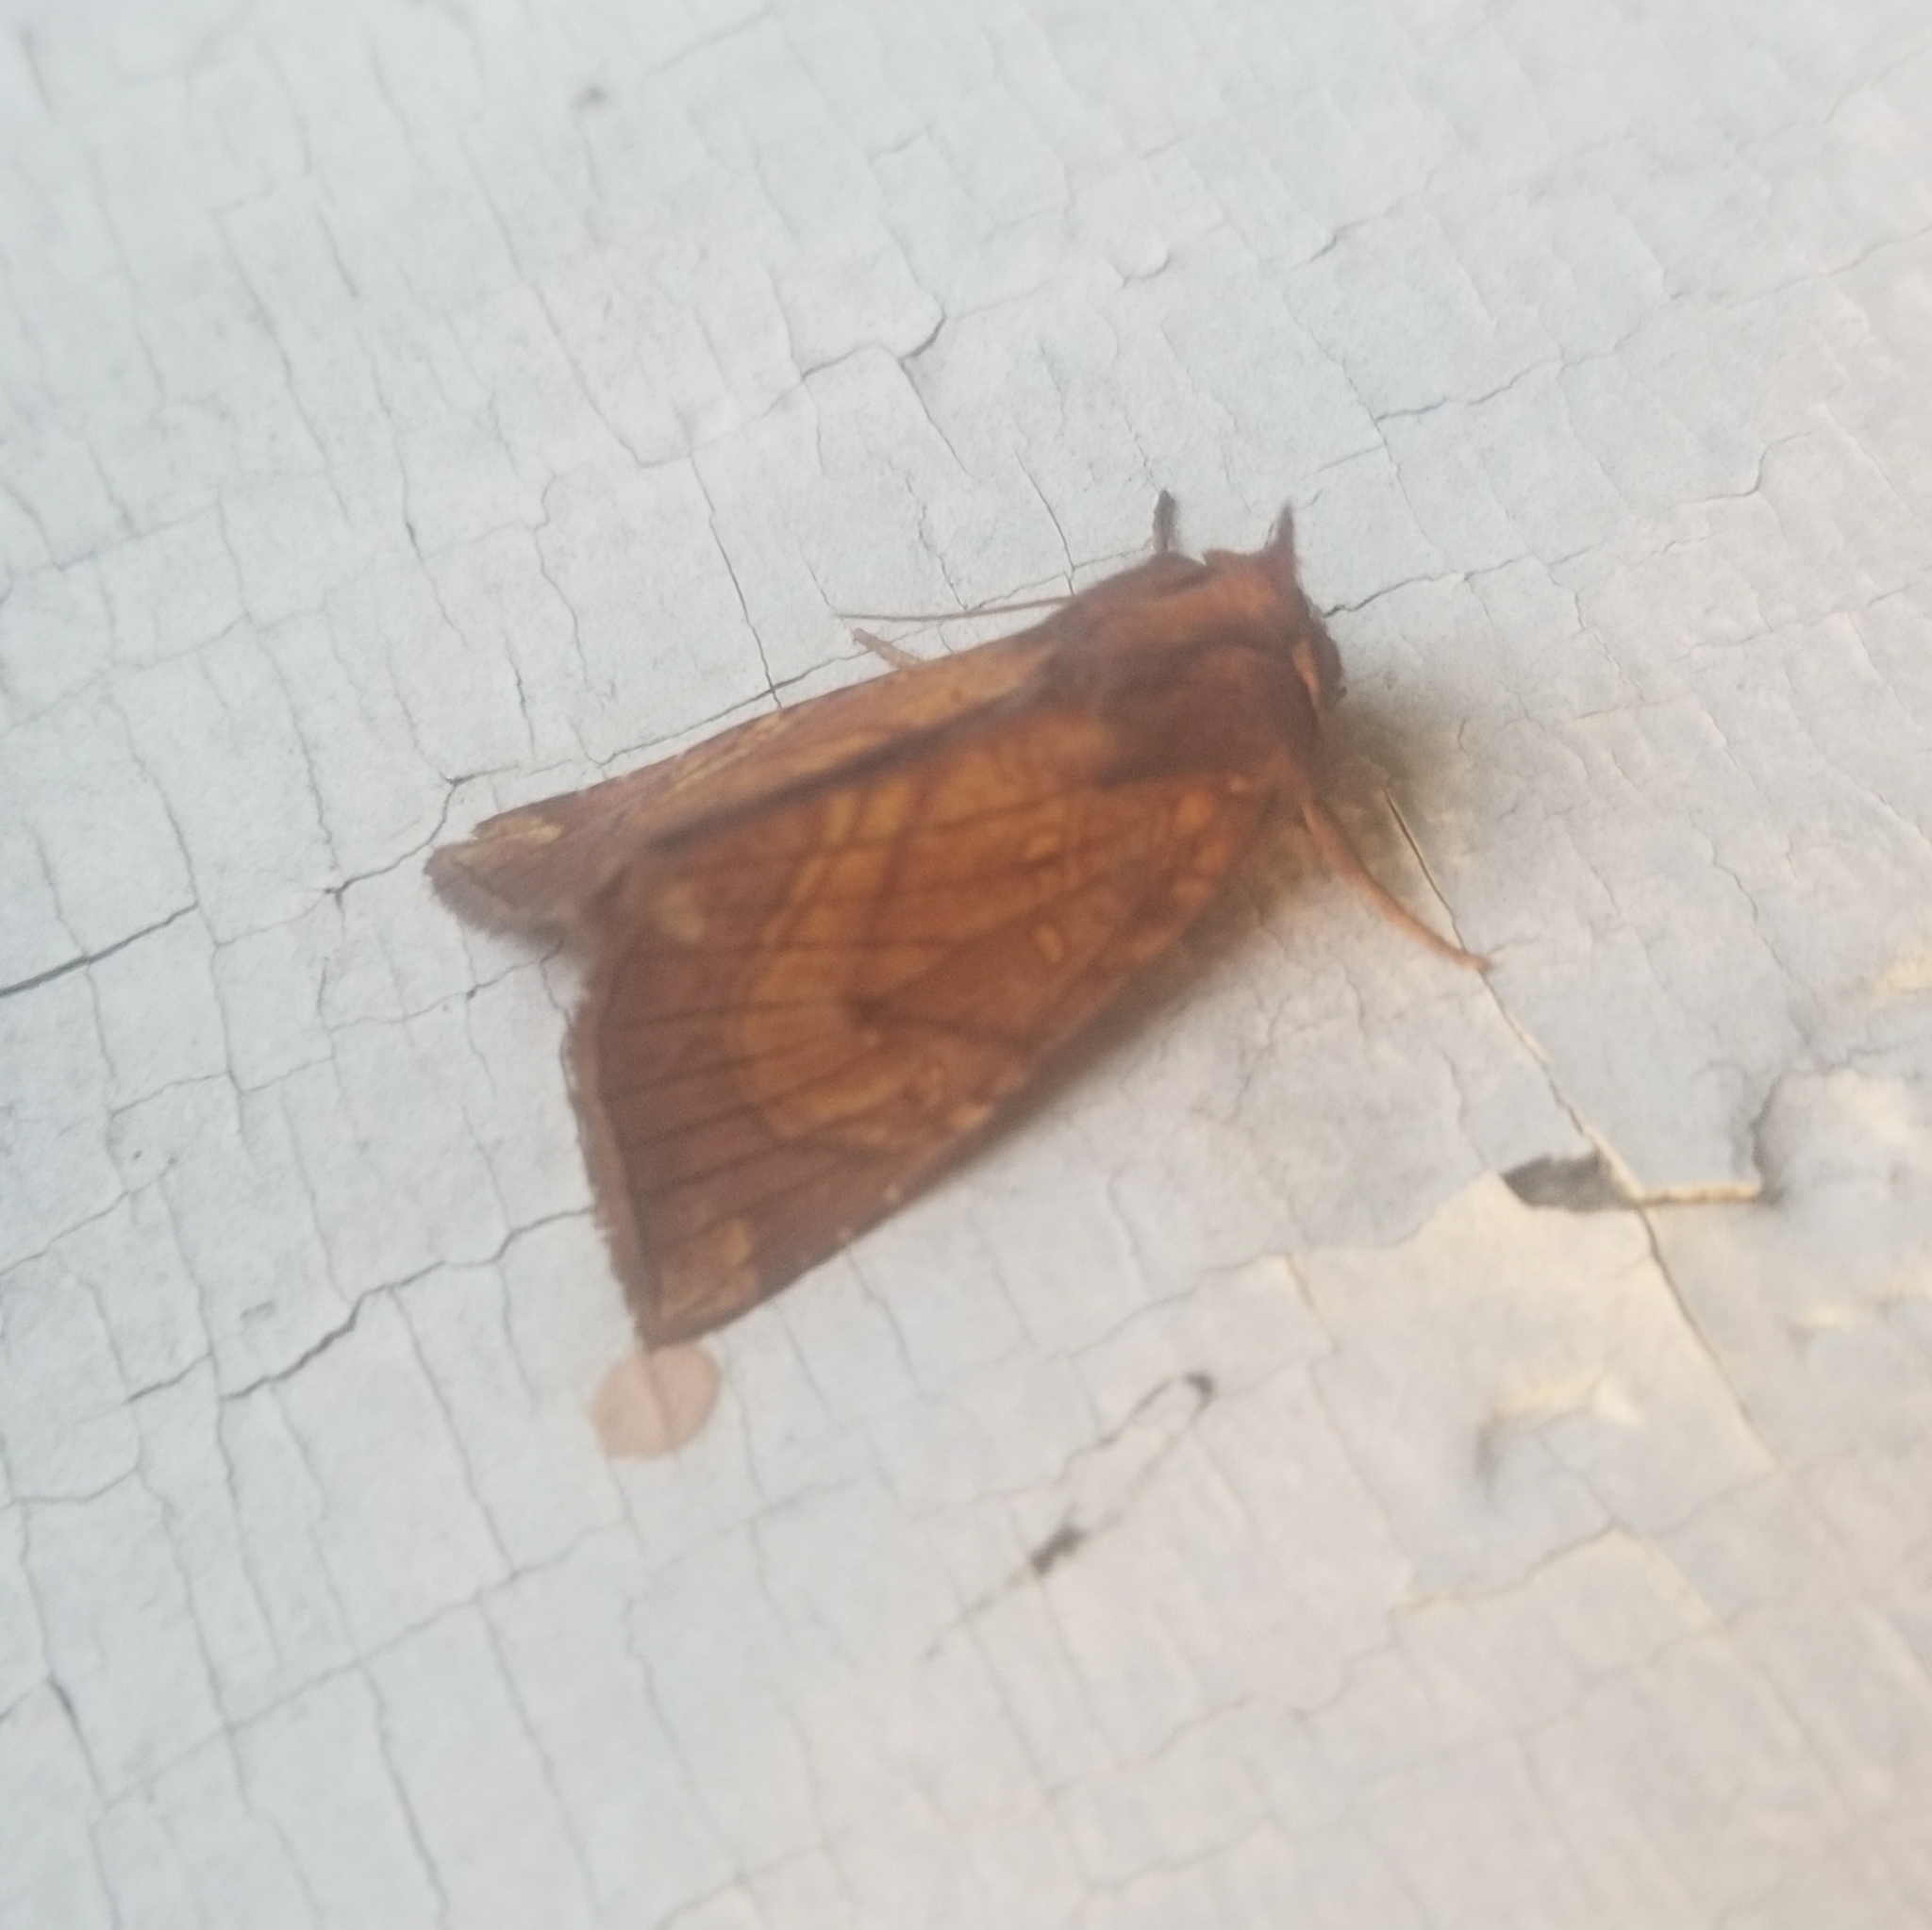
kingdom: Animalia
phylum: Arthropoda
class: Insecta
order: Lepidoptera
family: Noctuidae
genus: Papaipema
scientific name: Papaipema inquaesita
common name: Sensitive fern borer moth
